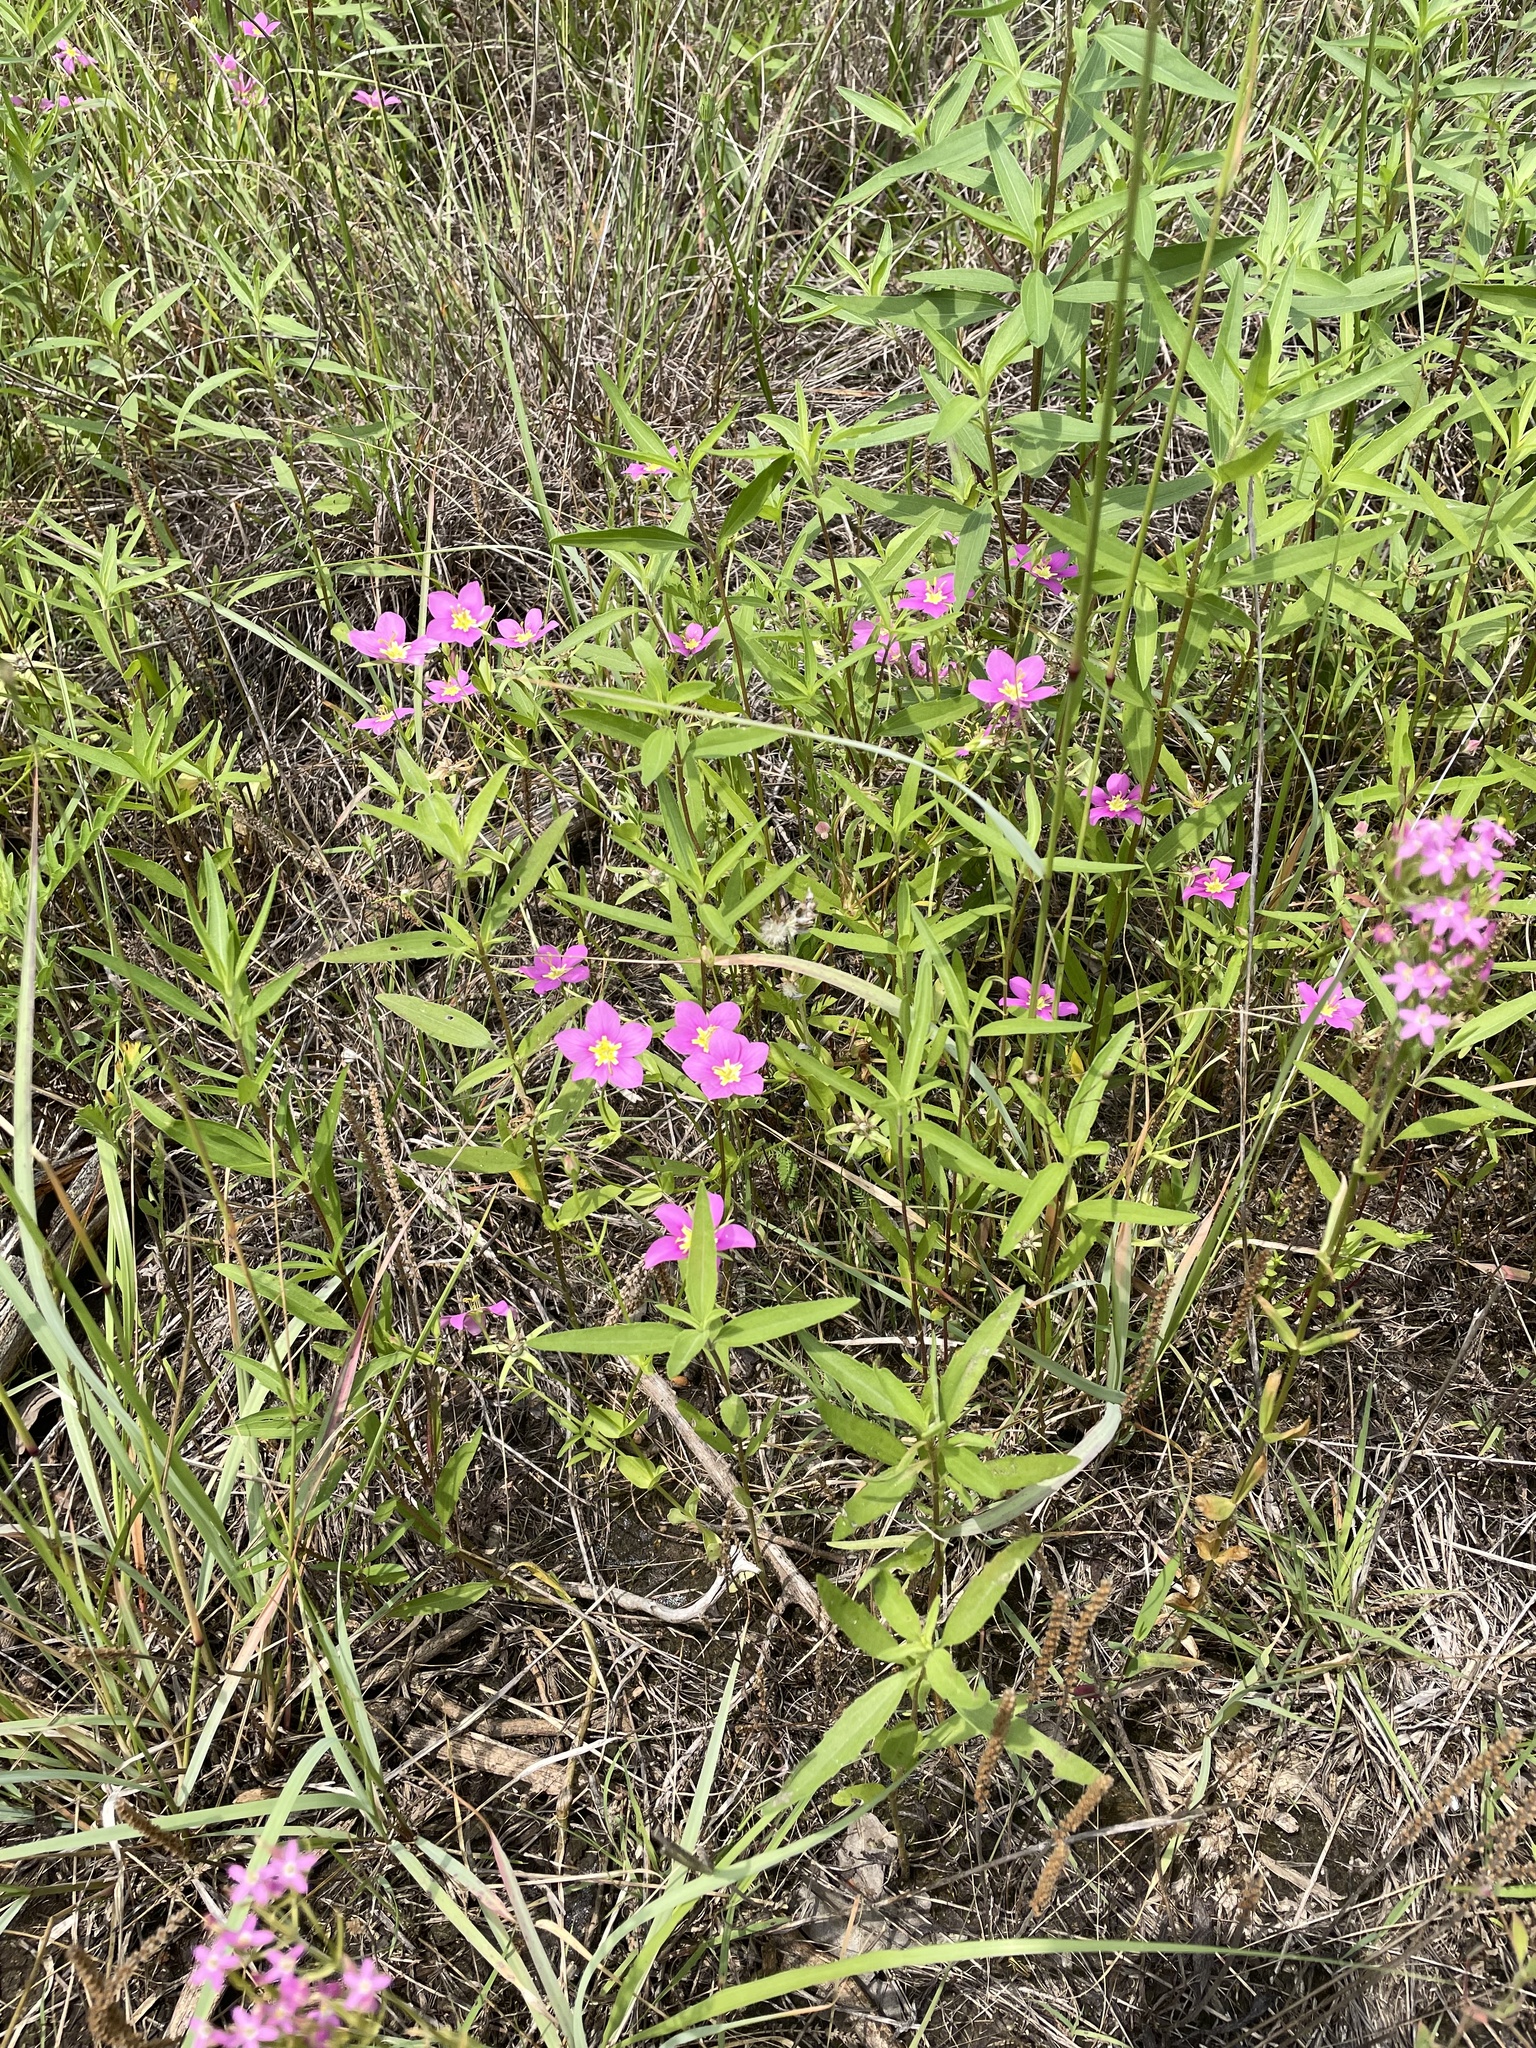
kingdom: Plantae
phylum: Tracheophyta
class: Magnoliopsida
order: Gentianales
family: Gentianaceae
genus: Sabatia
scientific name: Sabatia campestris
